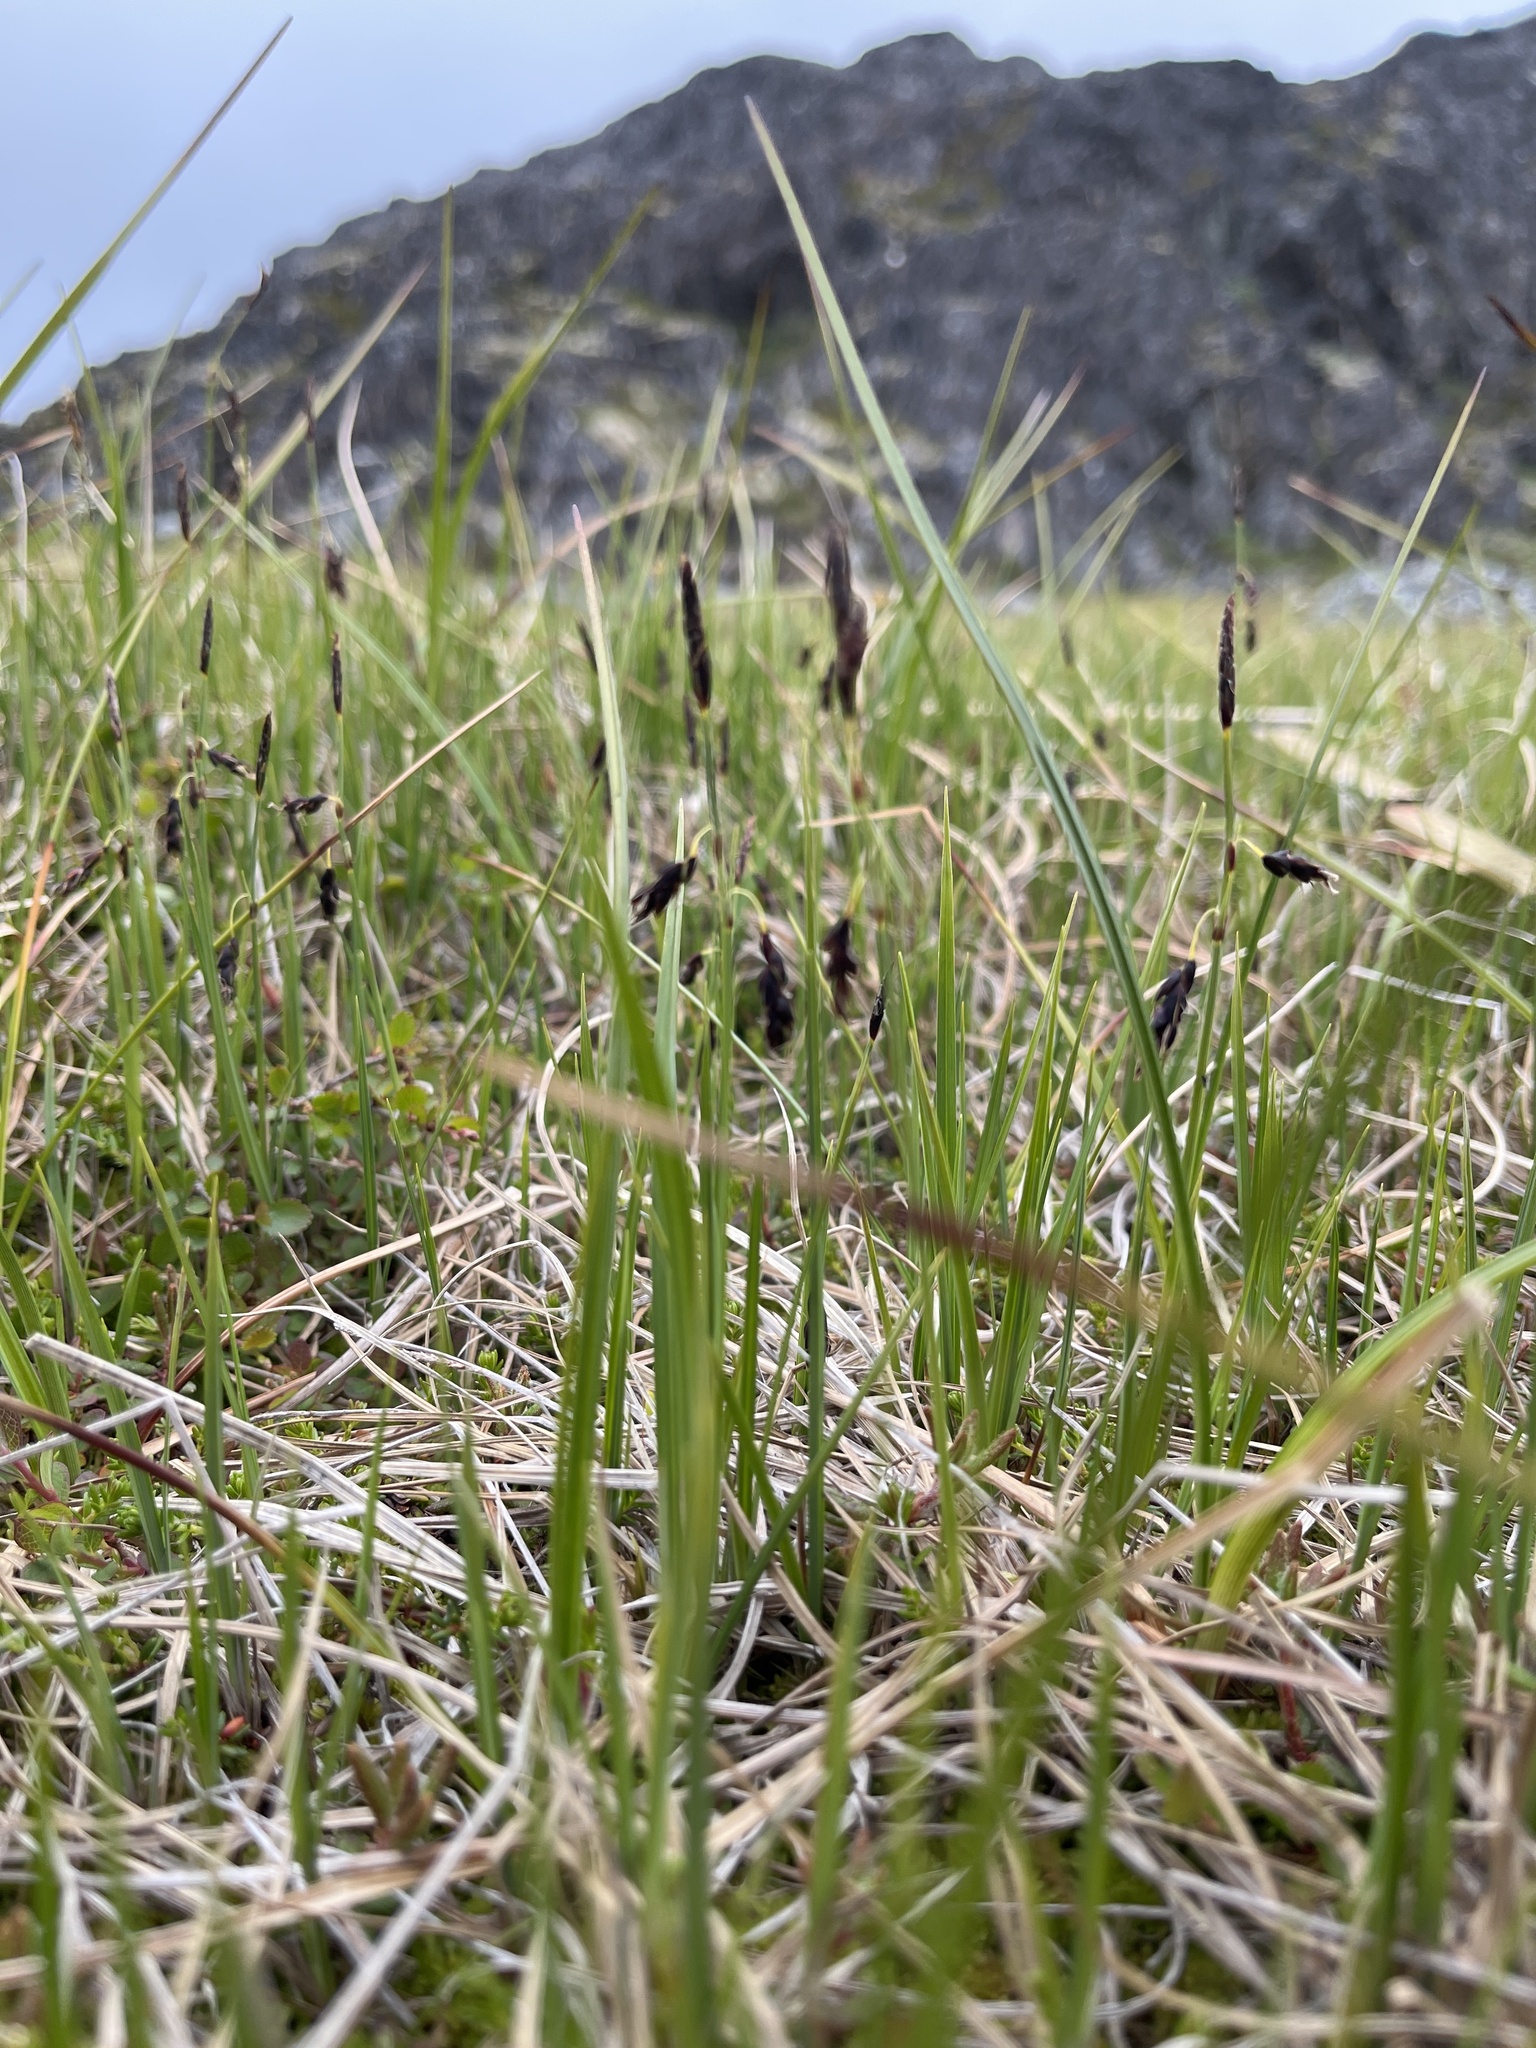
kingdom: Plantae
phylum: Tracheophyta
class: Liliopsida
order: Poales
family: Cyperaceae
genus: Carex
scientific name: Carex rariflora
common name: Loose-flowered alpine sedge
